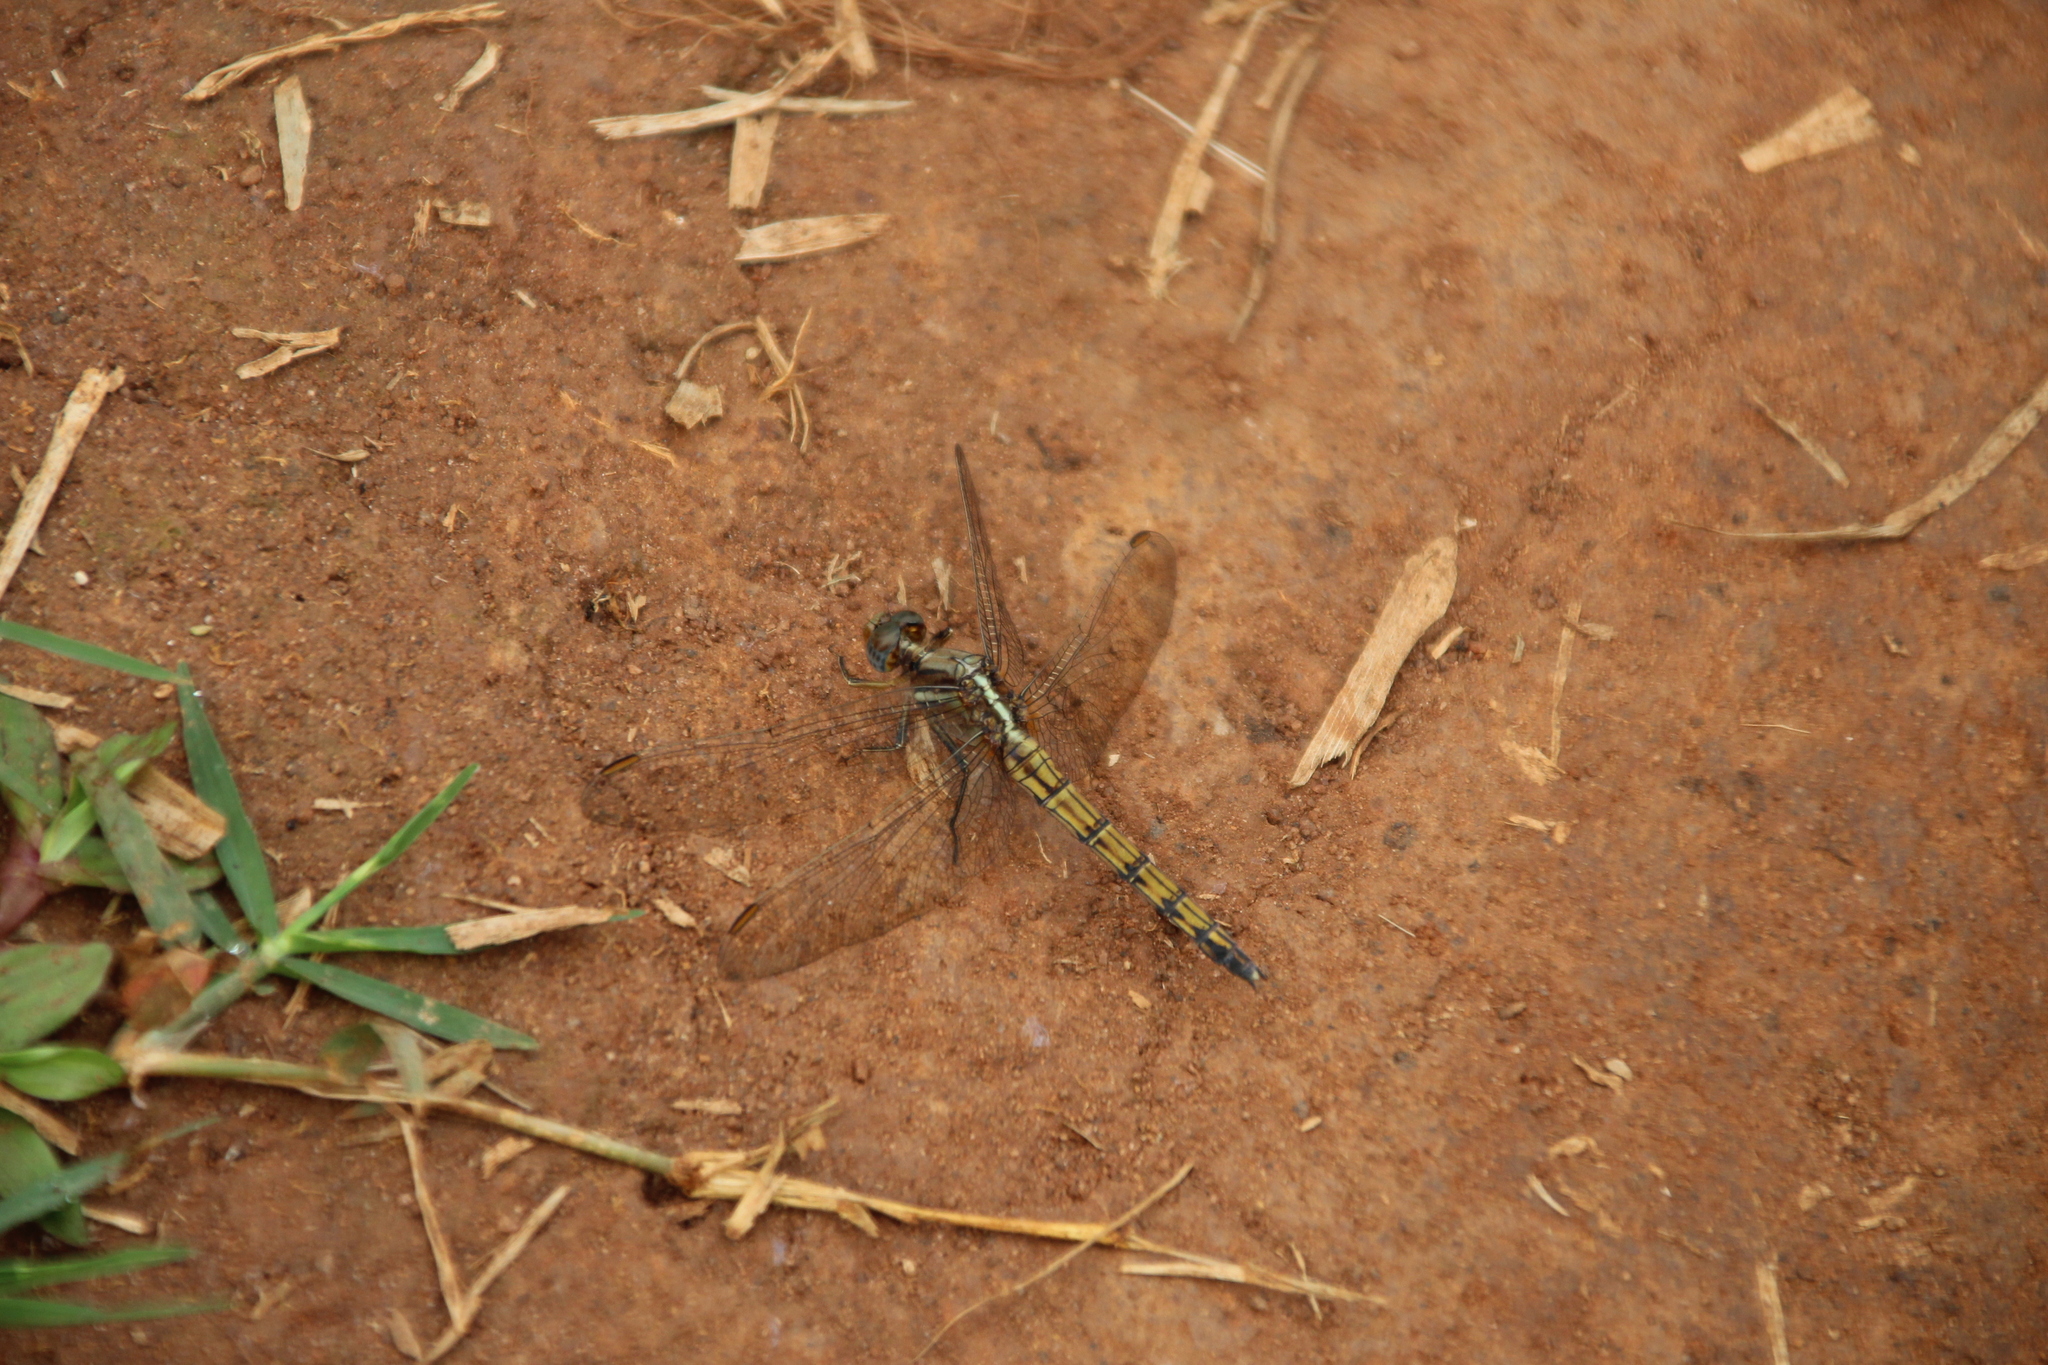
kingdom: Animalia
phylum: Arthropoda
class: Insecta
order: Odonata
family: Libellulidae
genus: Orthetrum
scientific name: Orthetrum chrysostigma
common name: Epaulet skimmer
